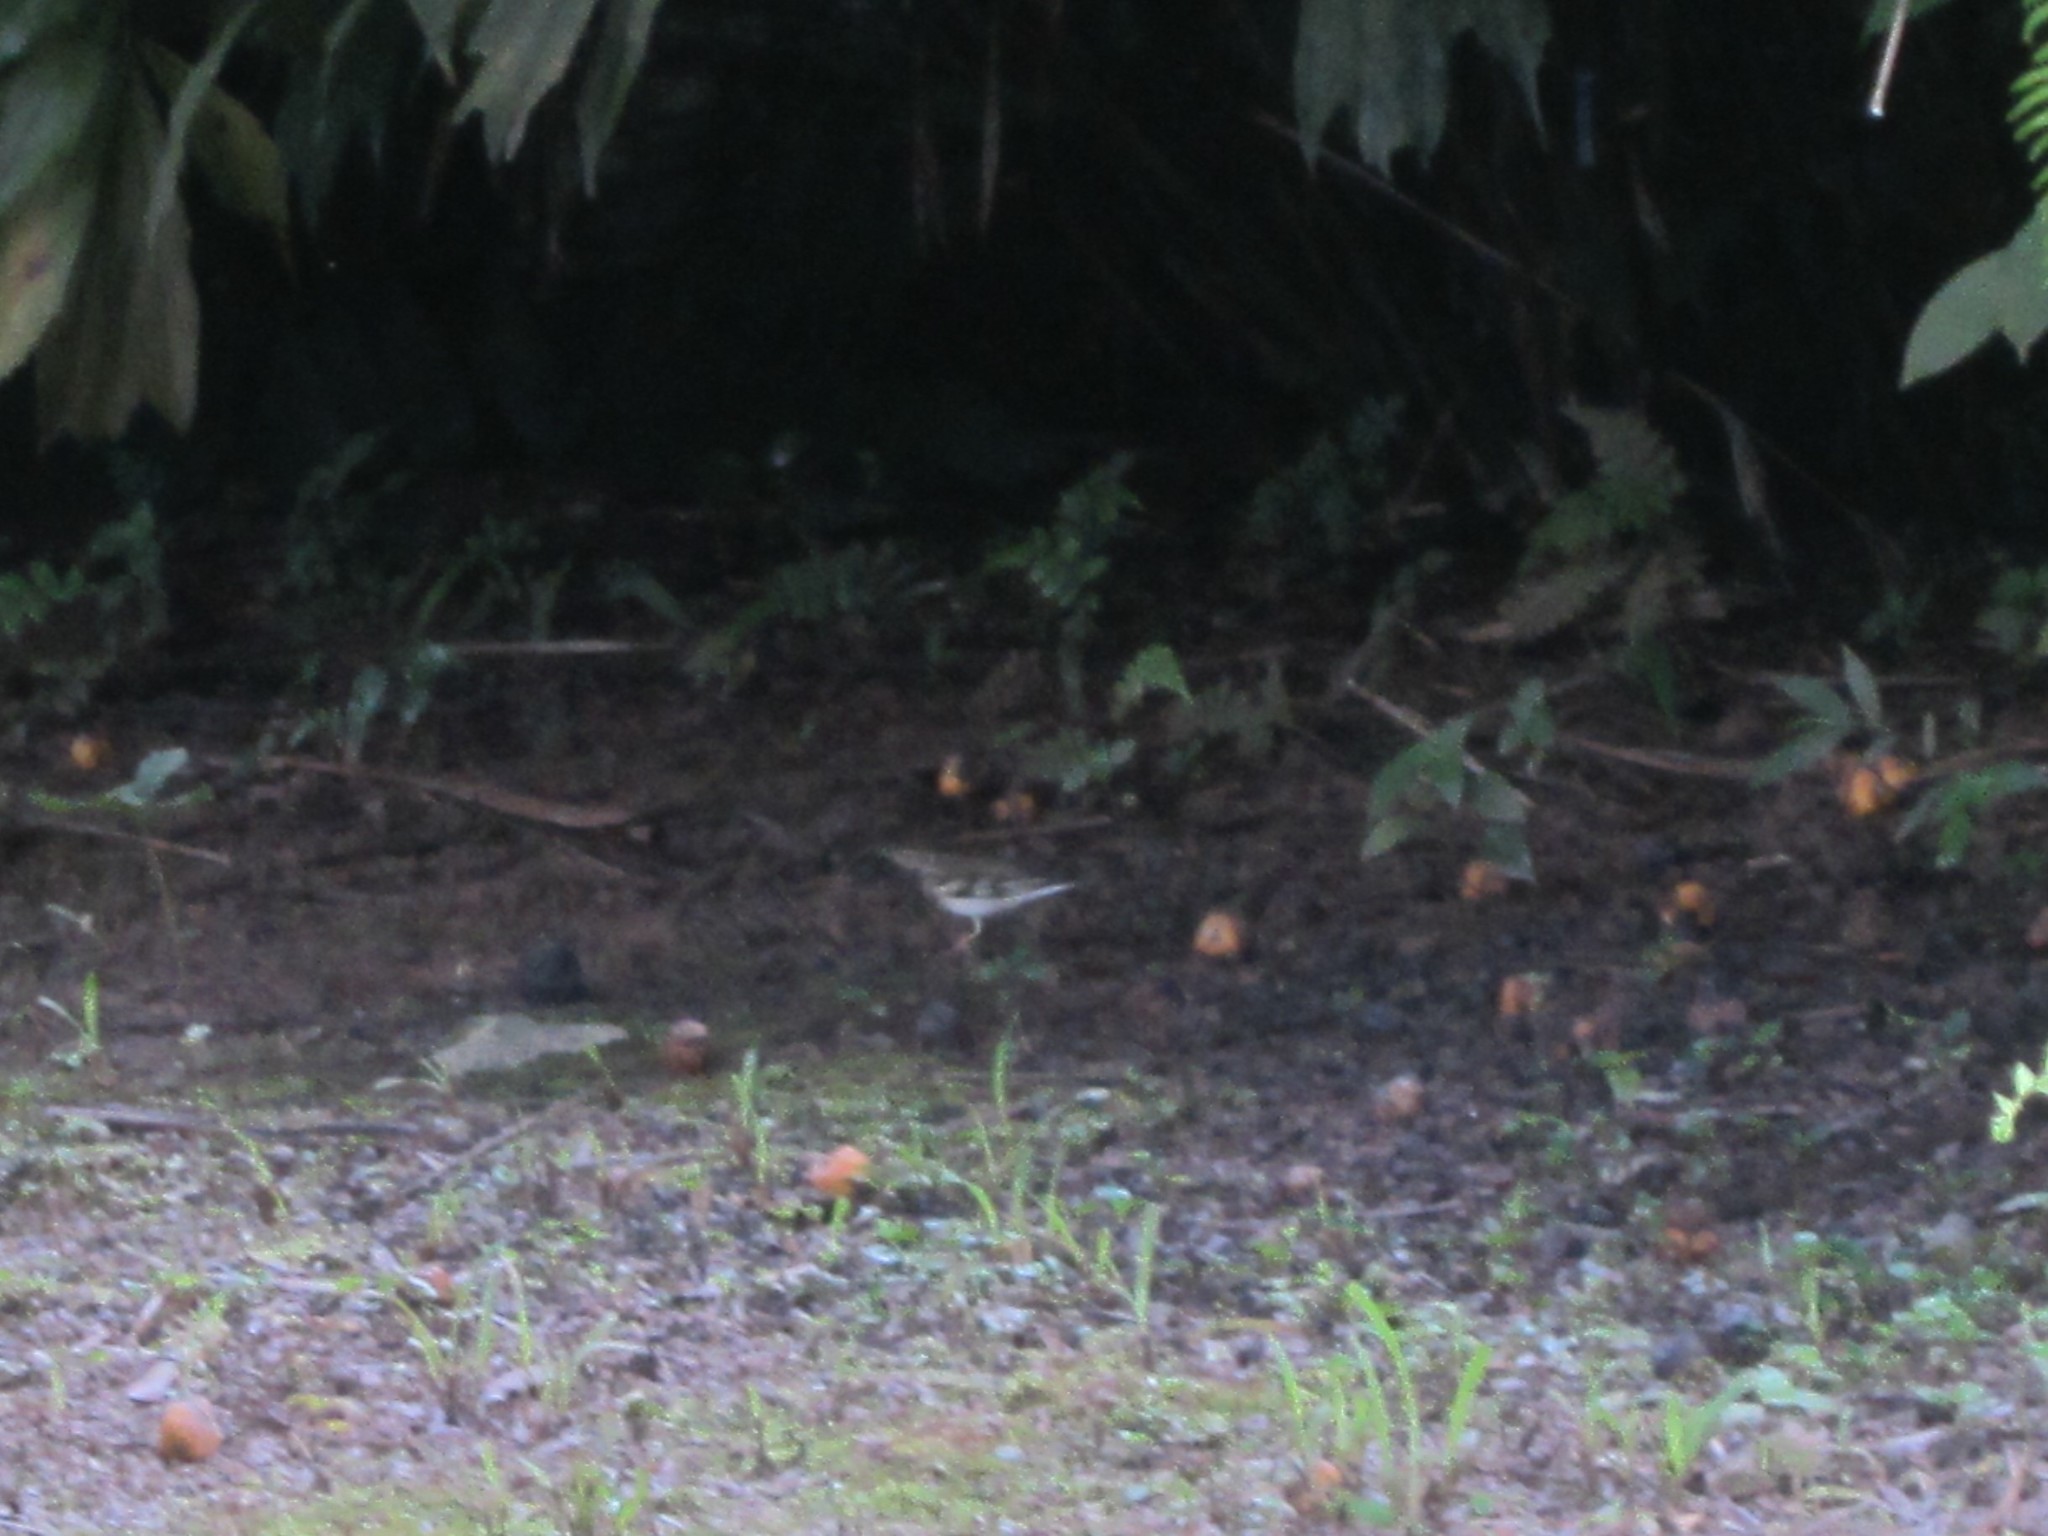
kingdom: Animalia
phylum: Chordata
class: Aves
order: Passeriformes
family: Turdidae
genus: Zoothera
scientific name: Zoothera aurea
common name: White's thrush
